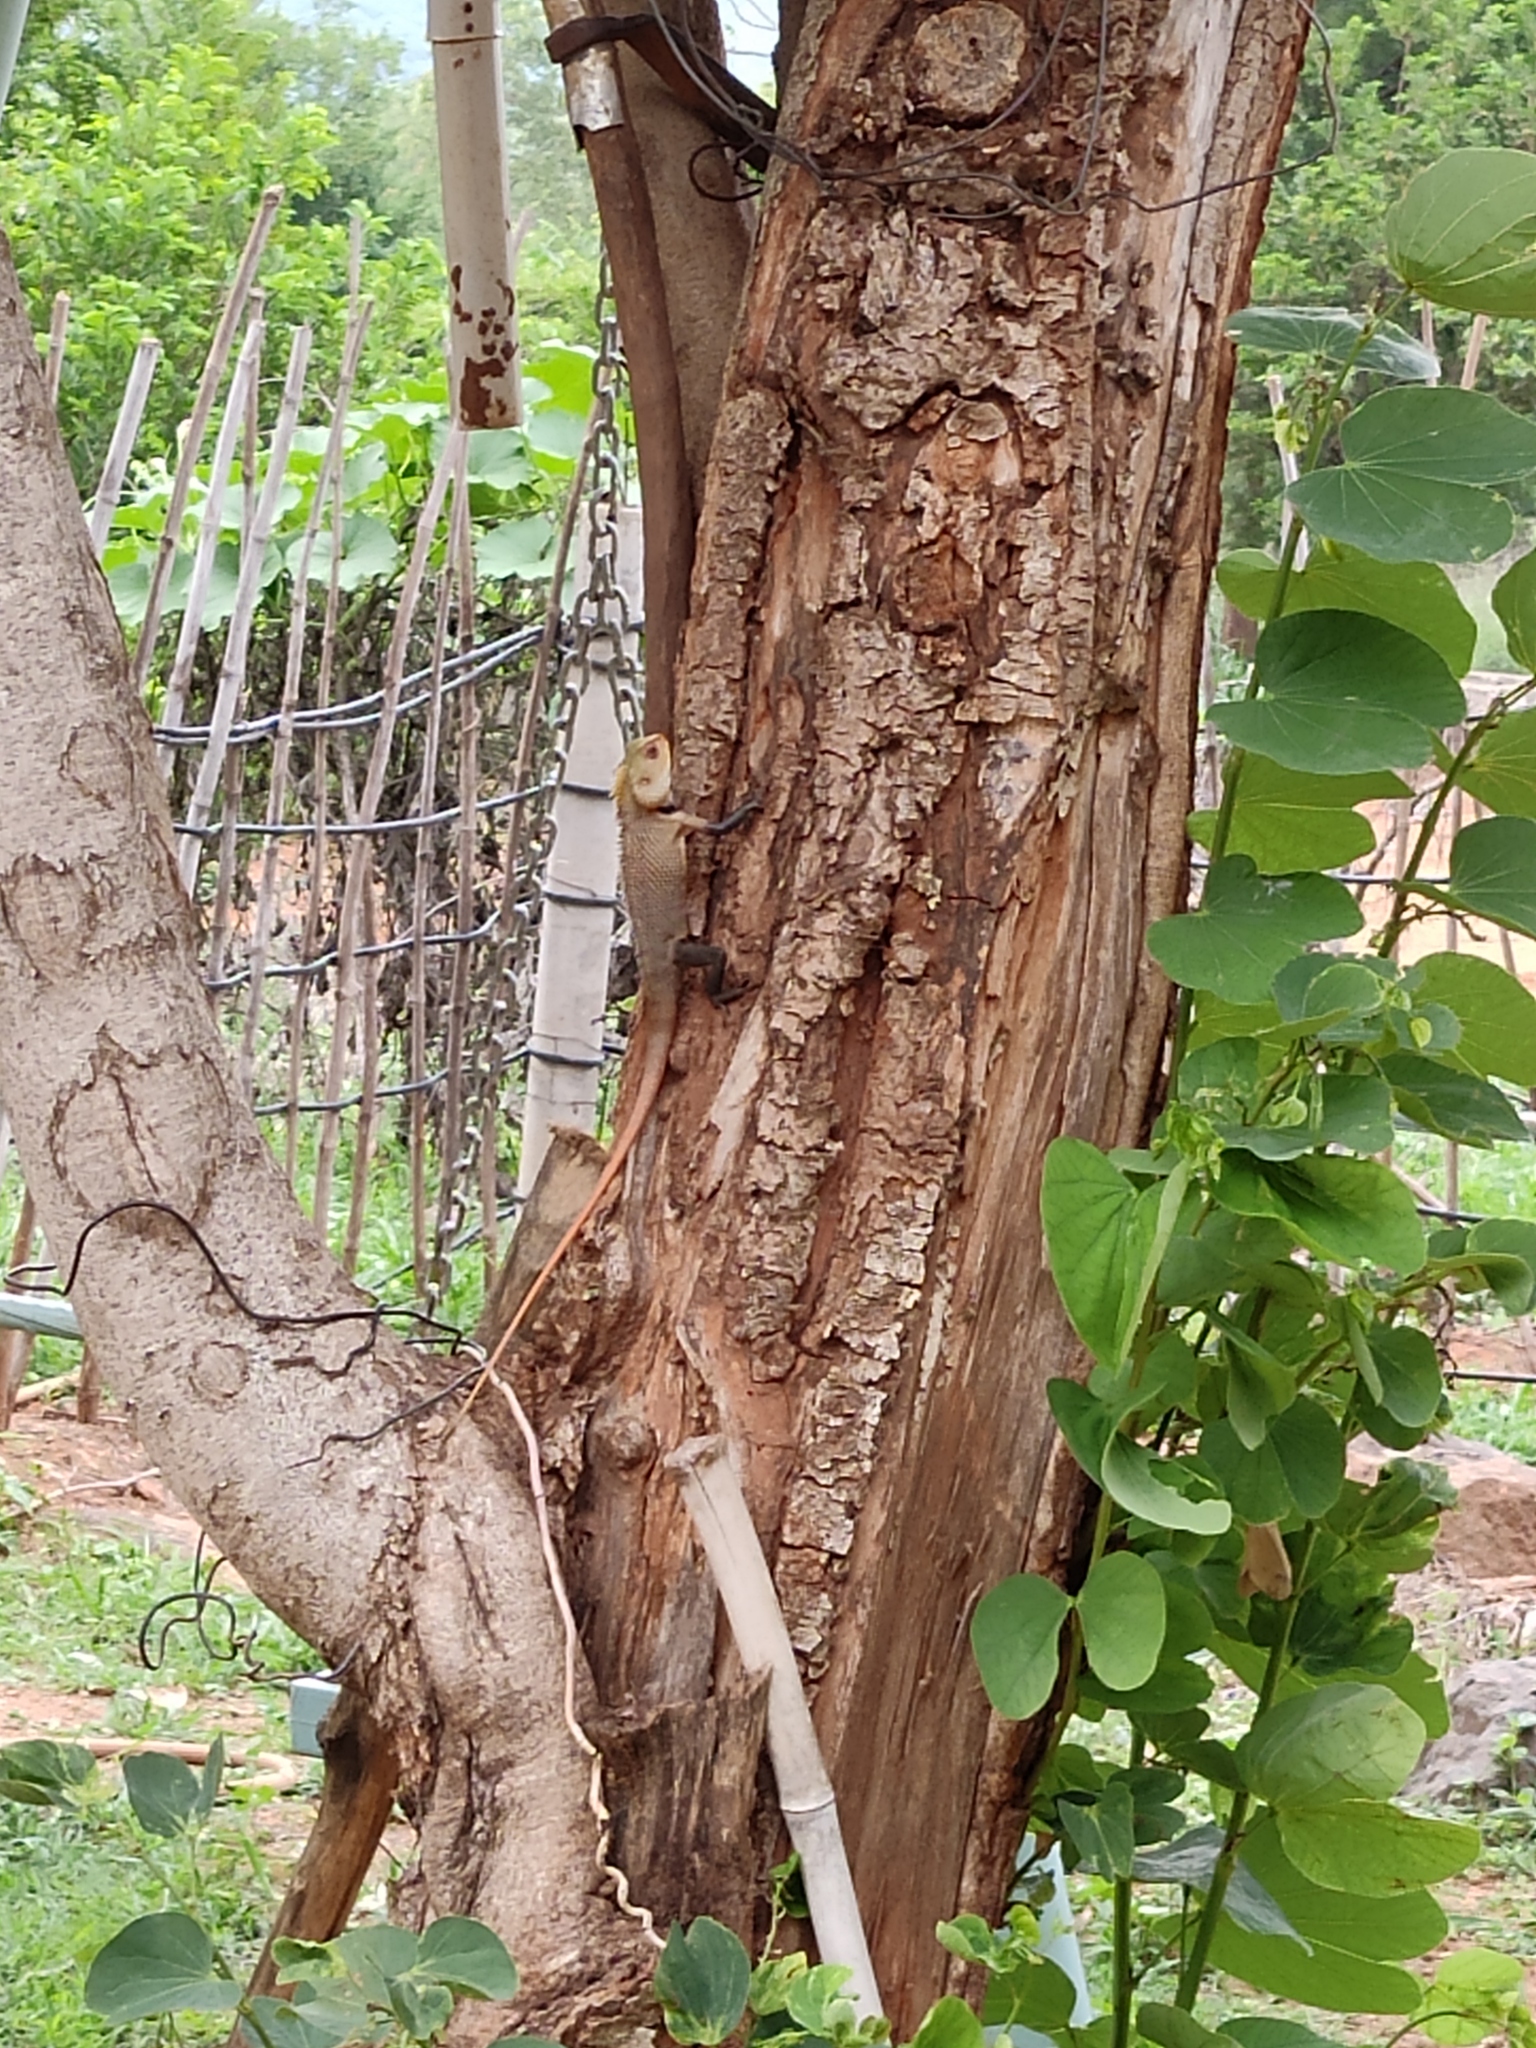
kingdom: Animalia
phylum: Chordata
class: Squamata
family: Agamidae
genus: Calotes
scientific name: Calotes versicolor
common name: Oriental garden lizard
